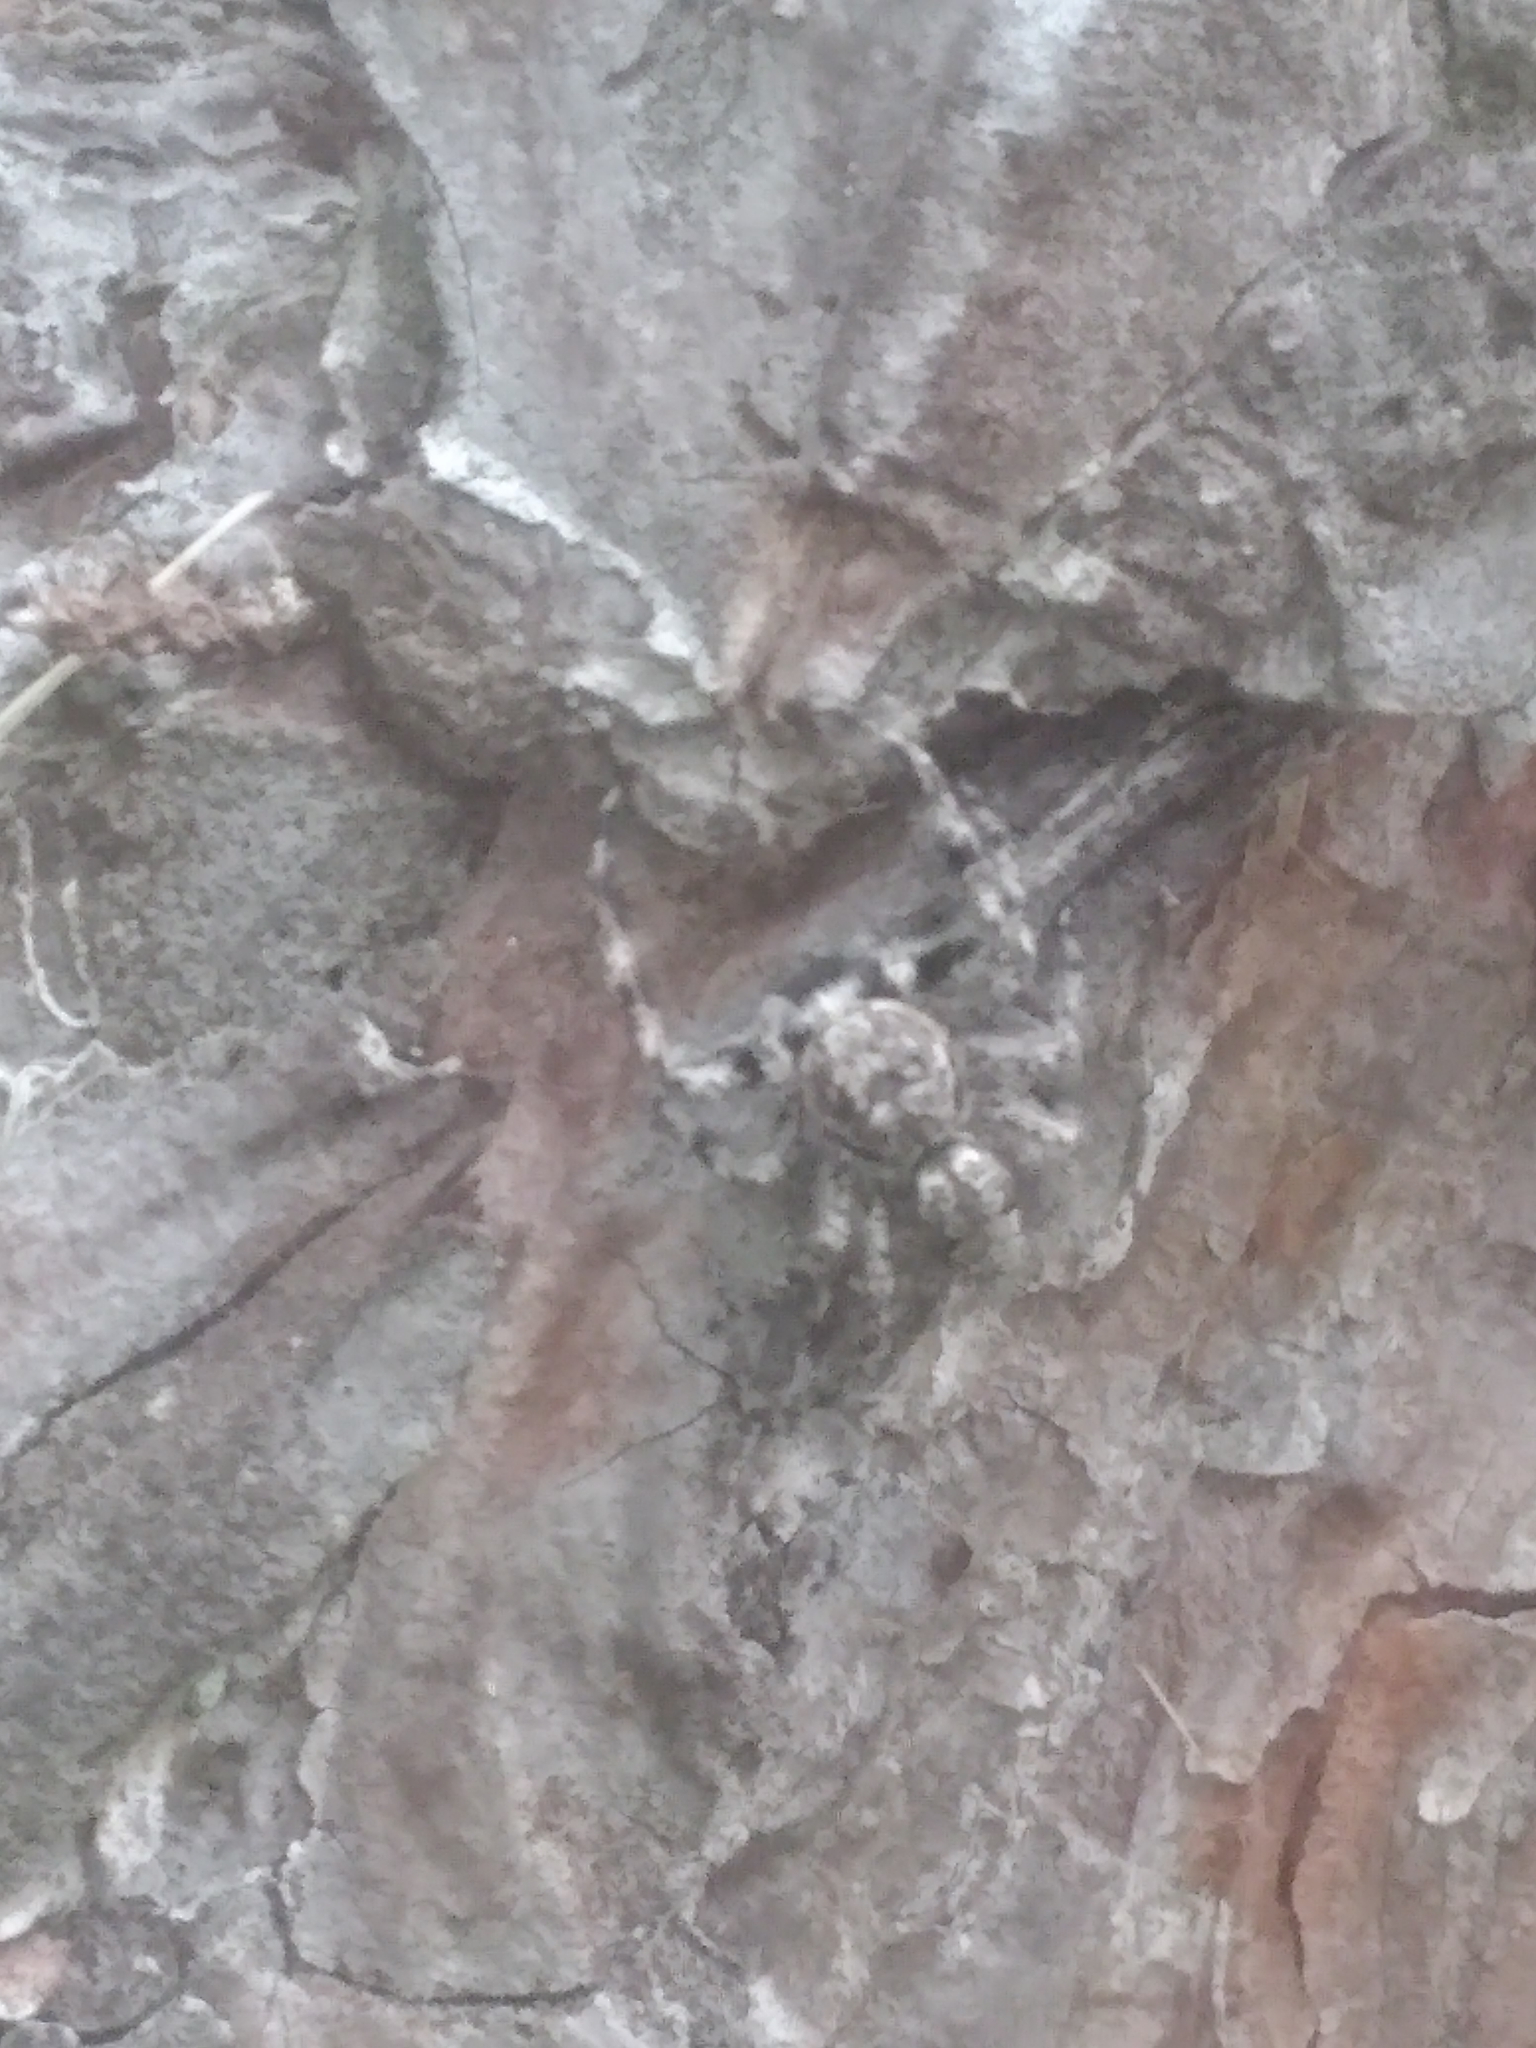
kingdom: Animalia
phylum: Arthropoda
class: Arachnida
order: Araneae
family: Salticidae
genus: Platycryptus
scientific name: Platycryptus undatus
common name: Tan jumping spider
